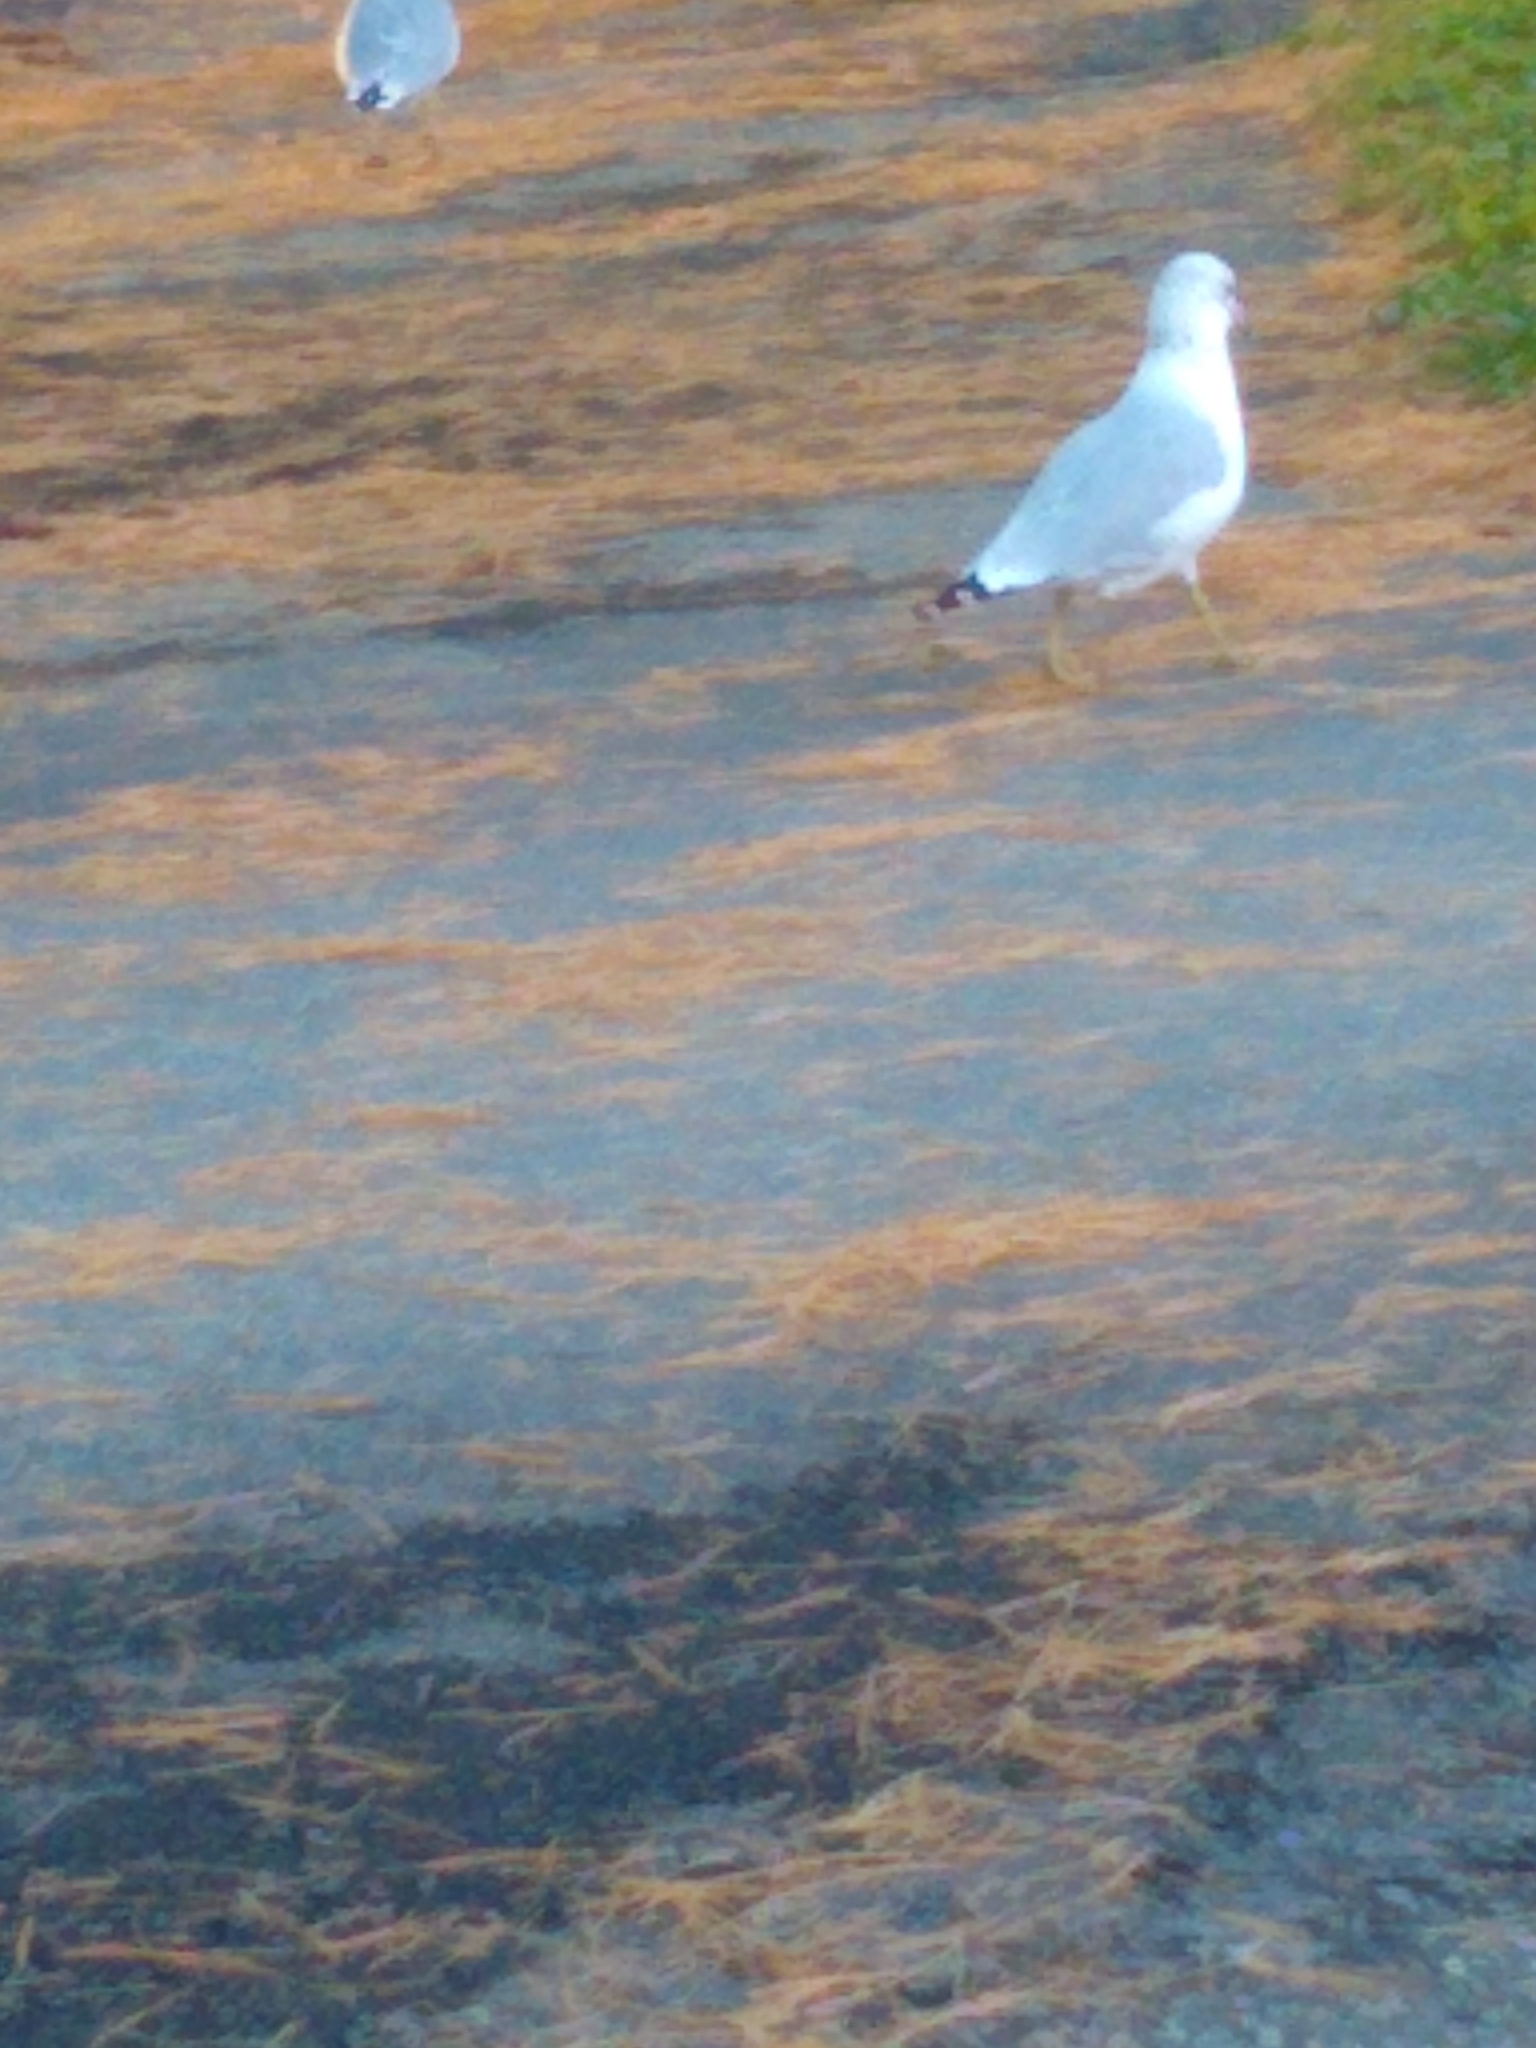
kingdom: Animalia
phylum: Chordata
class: Aves
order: Charadriiformes
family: Laridae
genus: Larus
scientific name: Larus delawarensis
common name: Ring-billed gull
